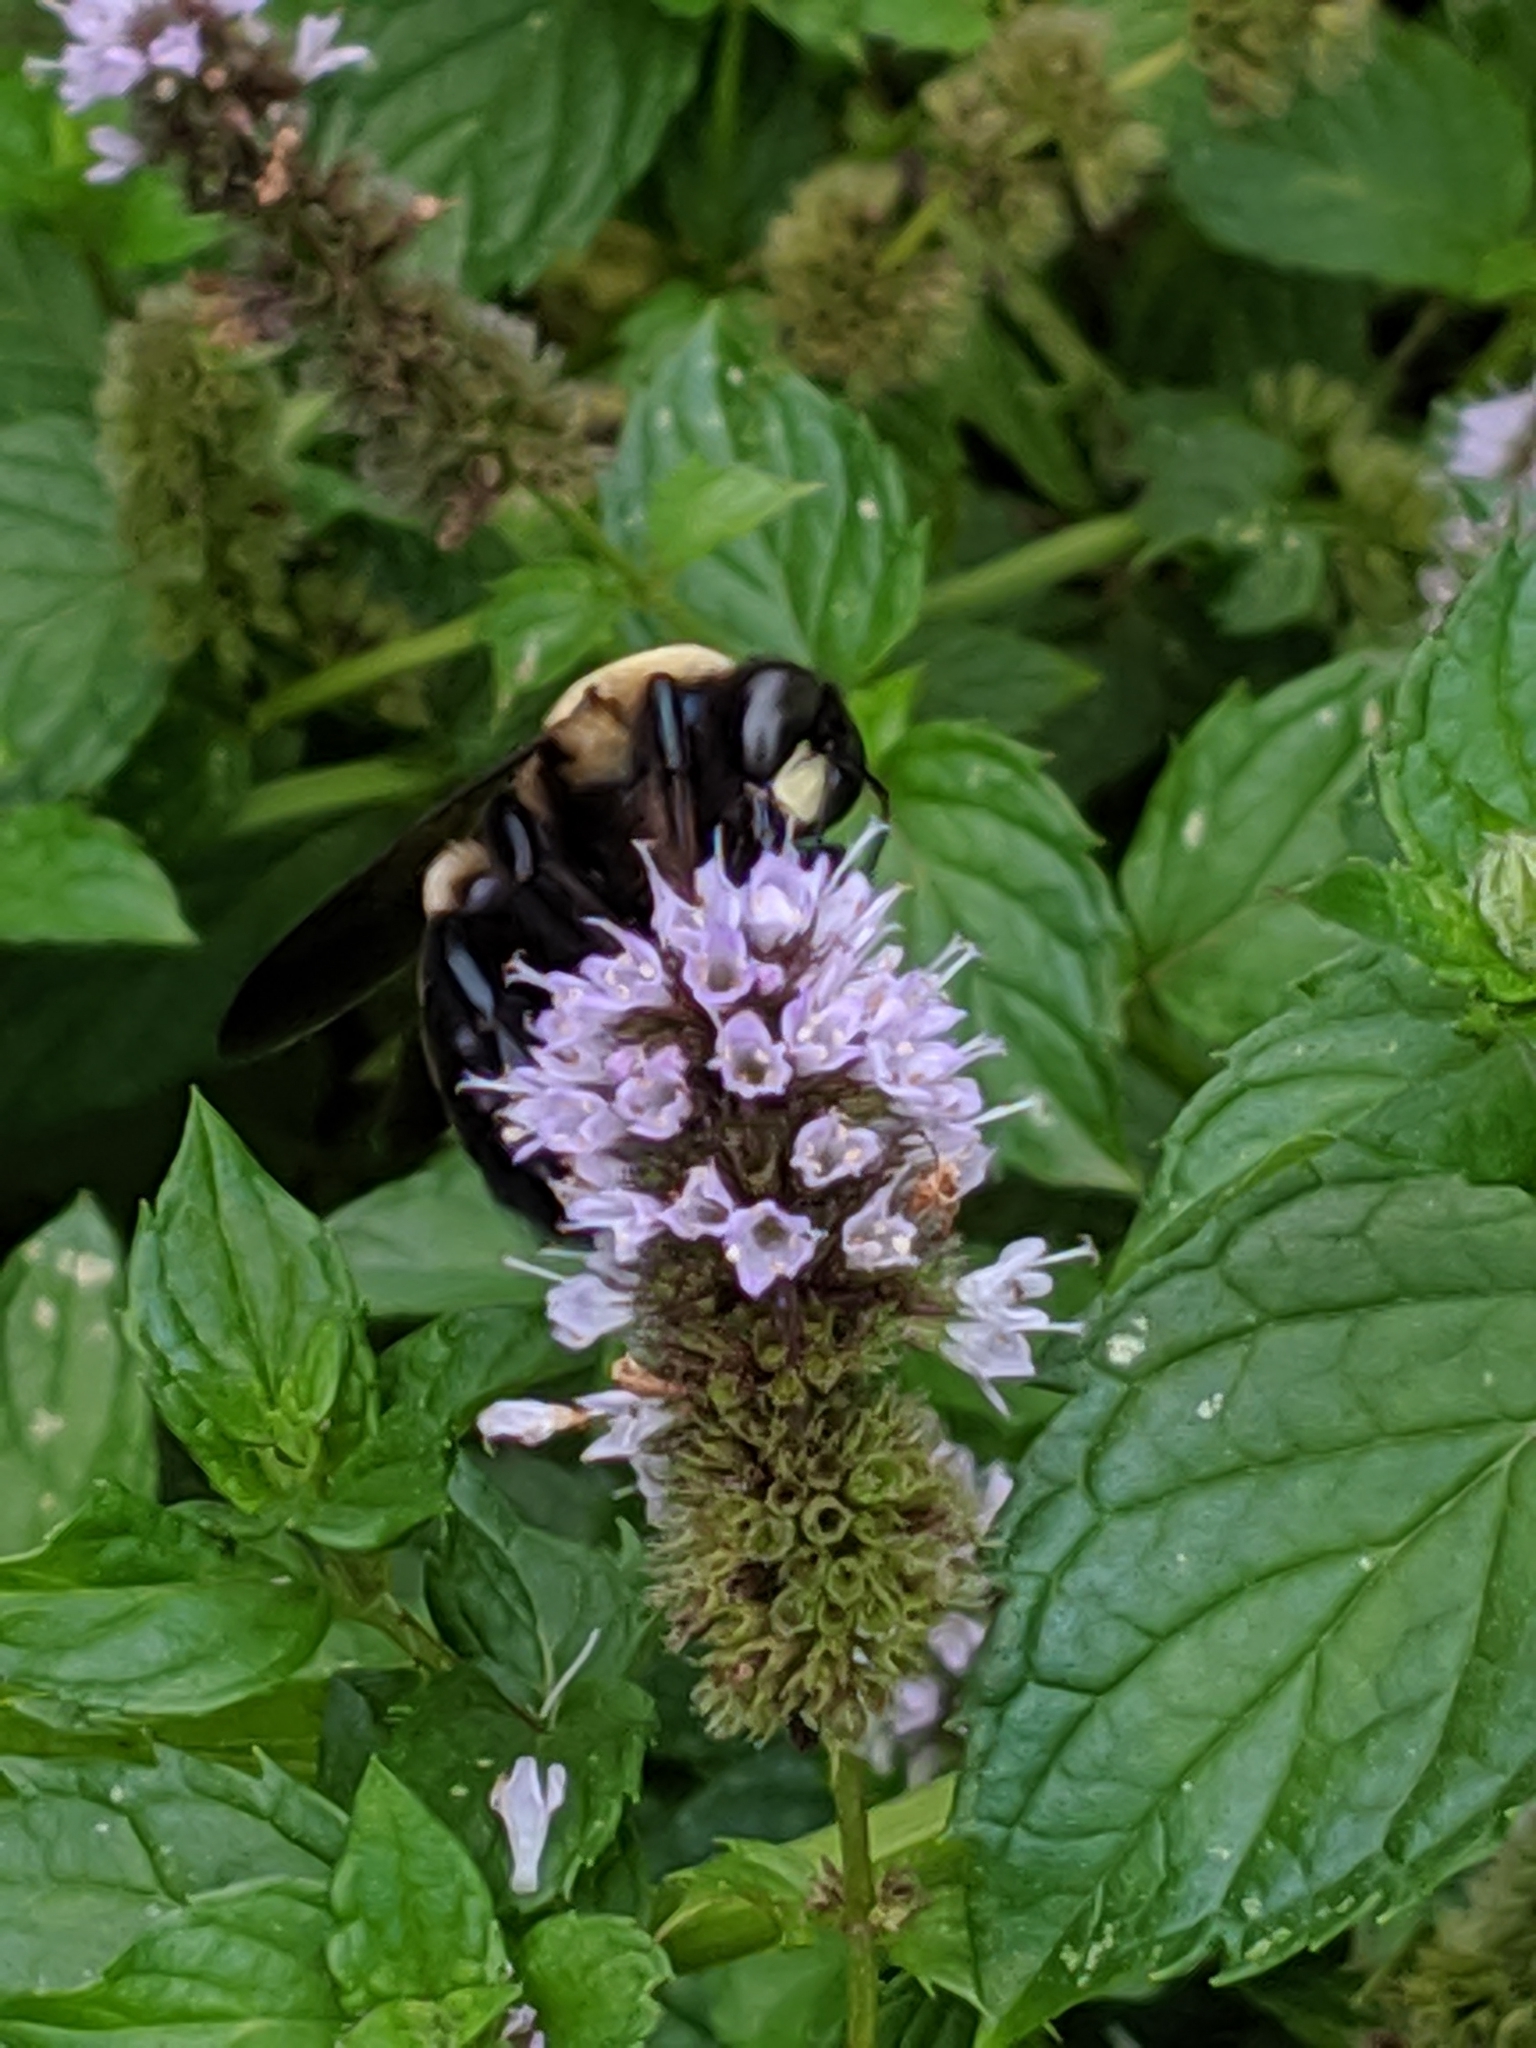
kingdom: Animalia
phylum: Arthropoda
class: Insecta
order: Hymenoptera
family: Apidae
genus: Xylocopa
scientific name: Xylocopa virginica
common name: Carpenter bee
